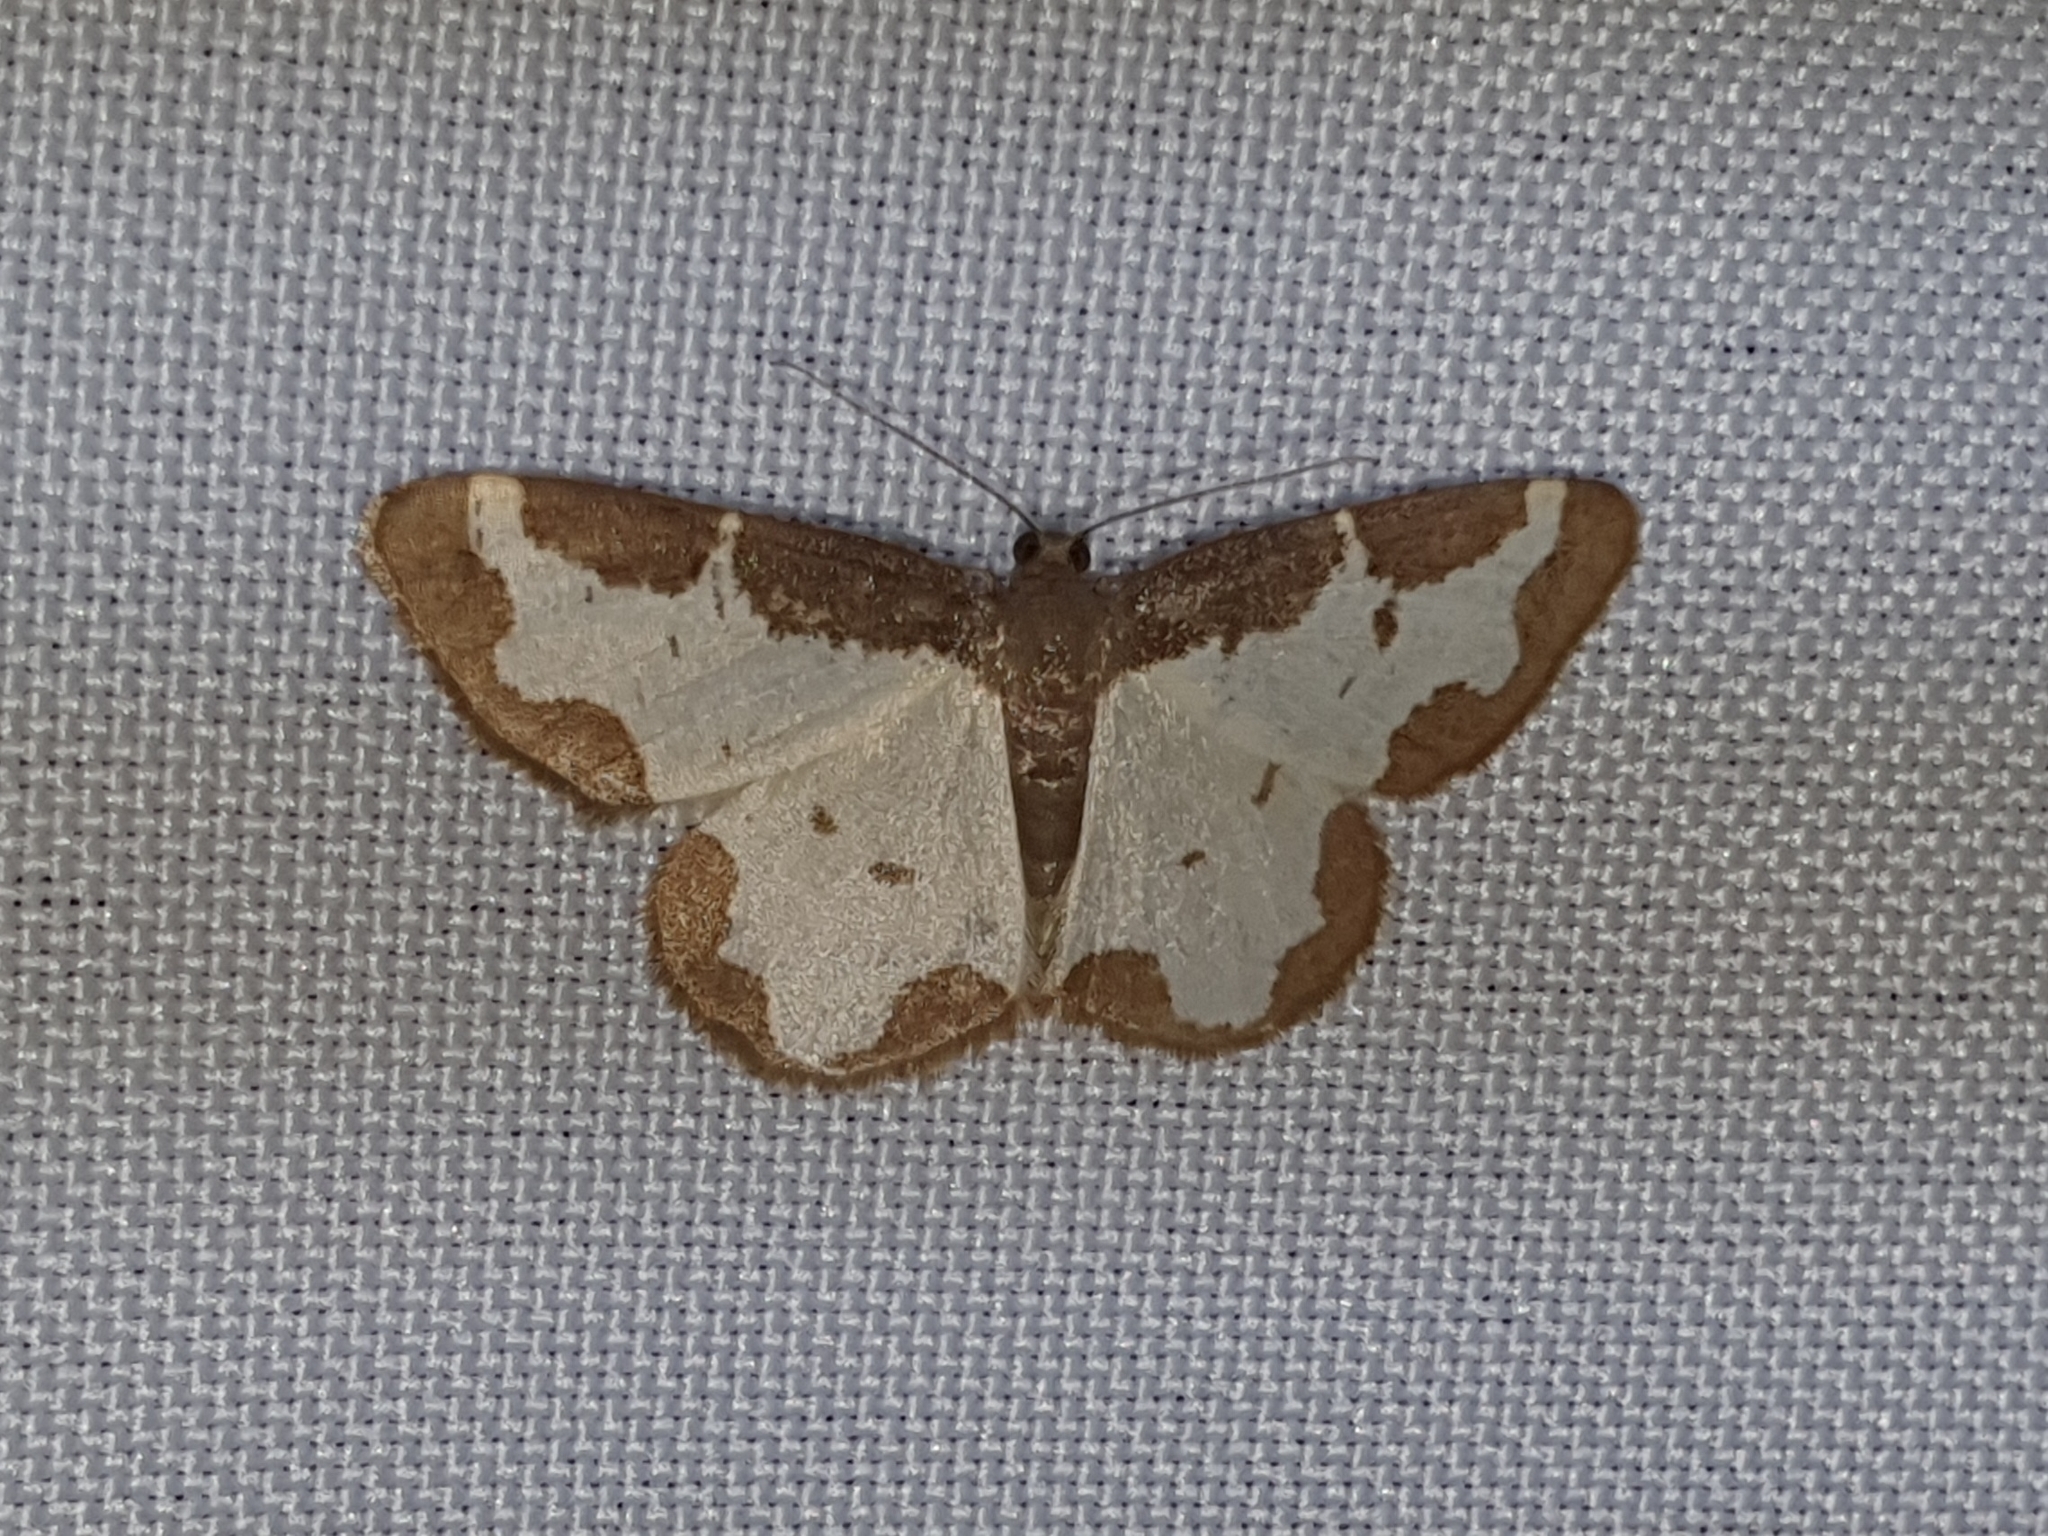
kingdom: Animalia
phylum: Arthropoda
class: Insecta
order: Lepidoptera
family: Geometridae
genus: Lomaspilis
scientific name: Lomaspilis marginata
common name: Clouded border
